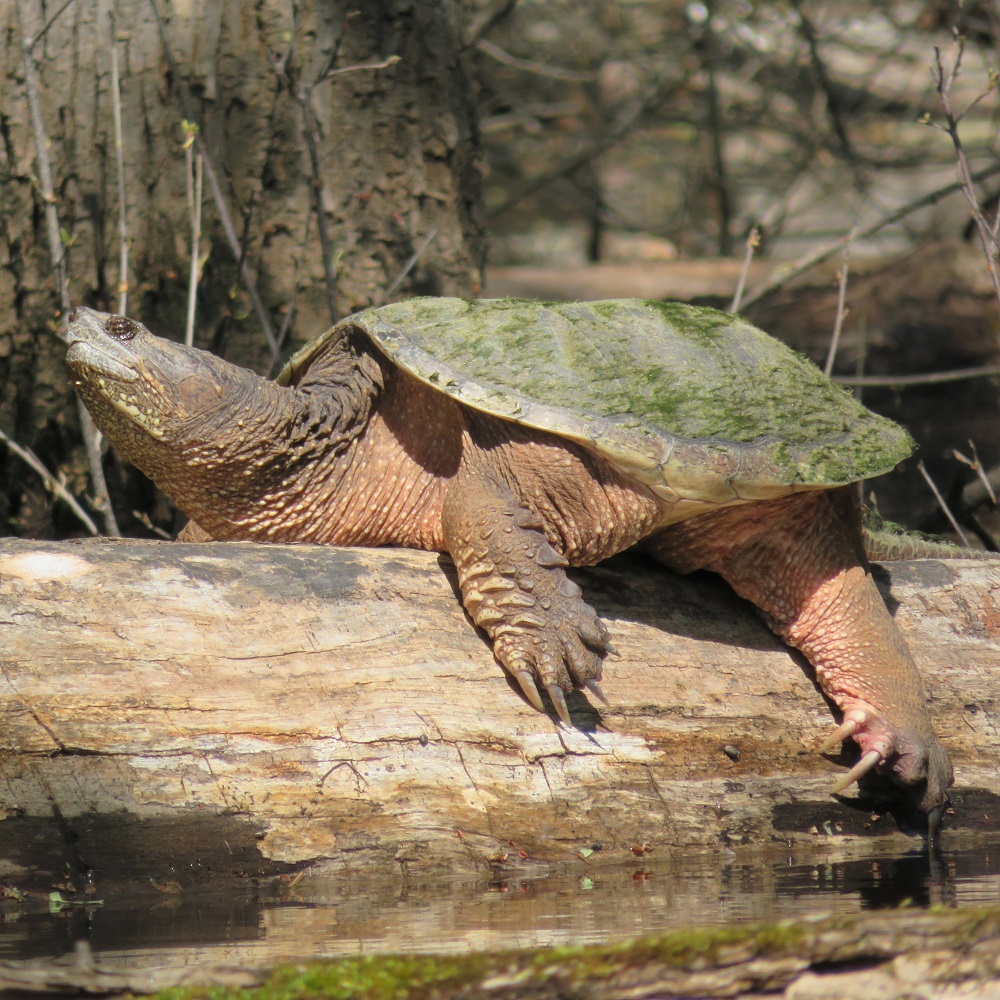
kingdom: Animalia
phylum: Chordata
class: Testudines
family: Chelydridae
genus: Chelydra
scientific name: Chelydra serpentina
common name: Common snapping turtle
